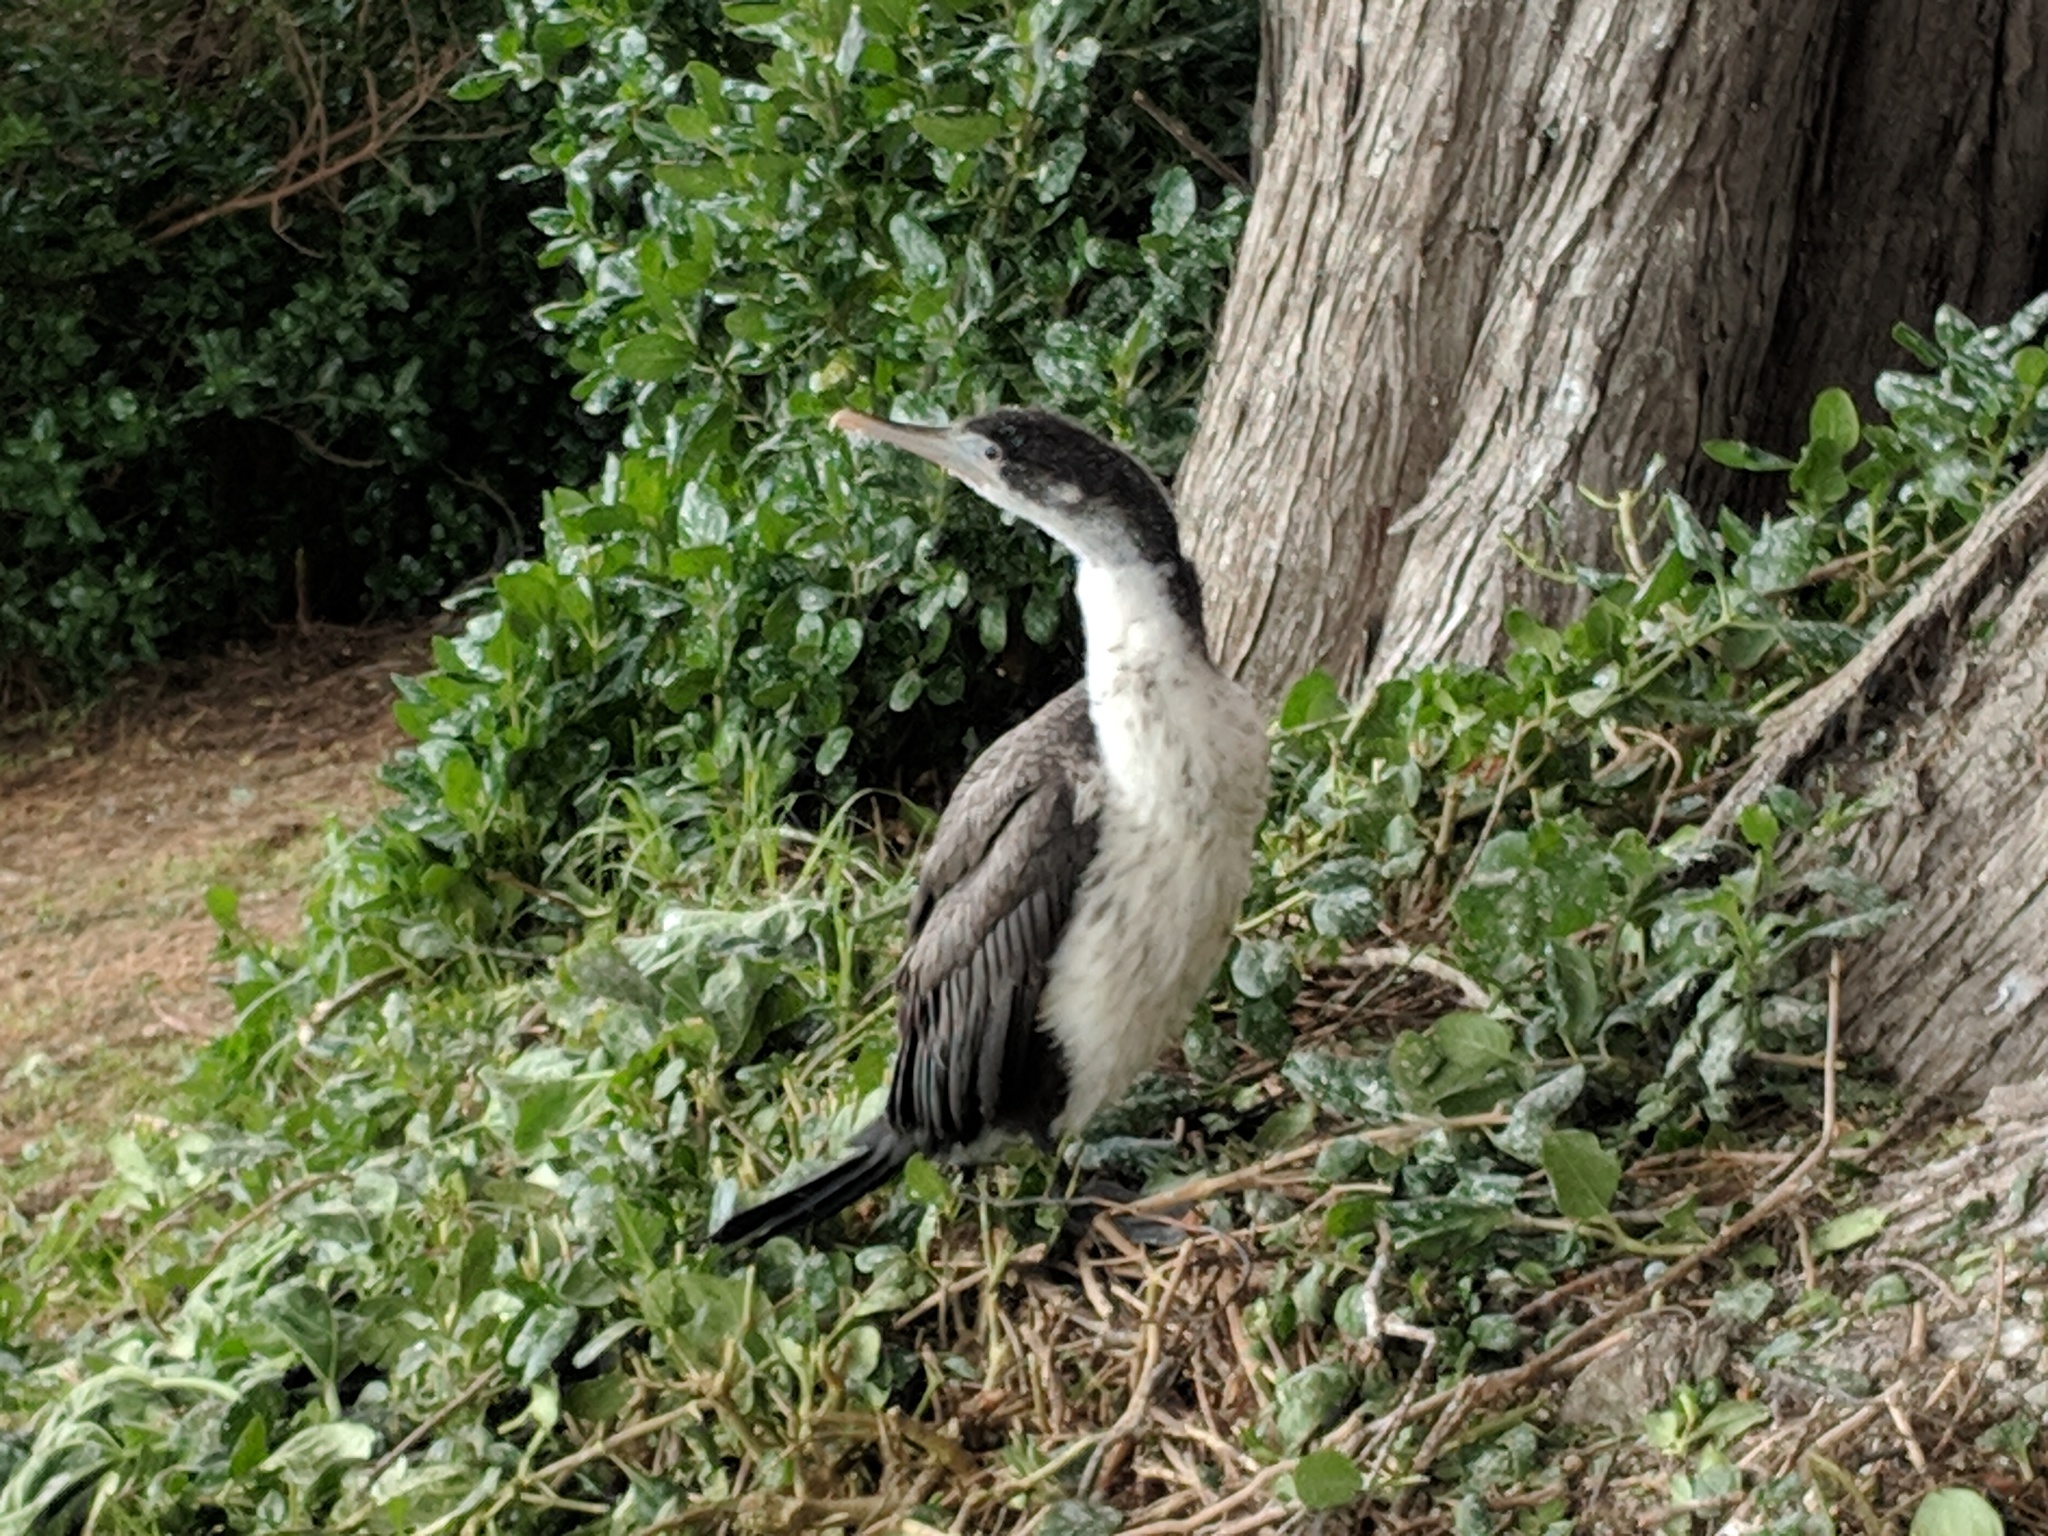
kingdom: Animalia
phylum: Chordata
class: Aves
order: Suliformes
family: Phalacrocoracidae
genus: Phalacrocorax
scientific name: Phalacrocorax varius
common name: Pied cormorant
